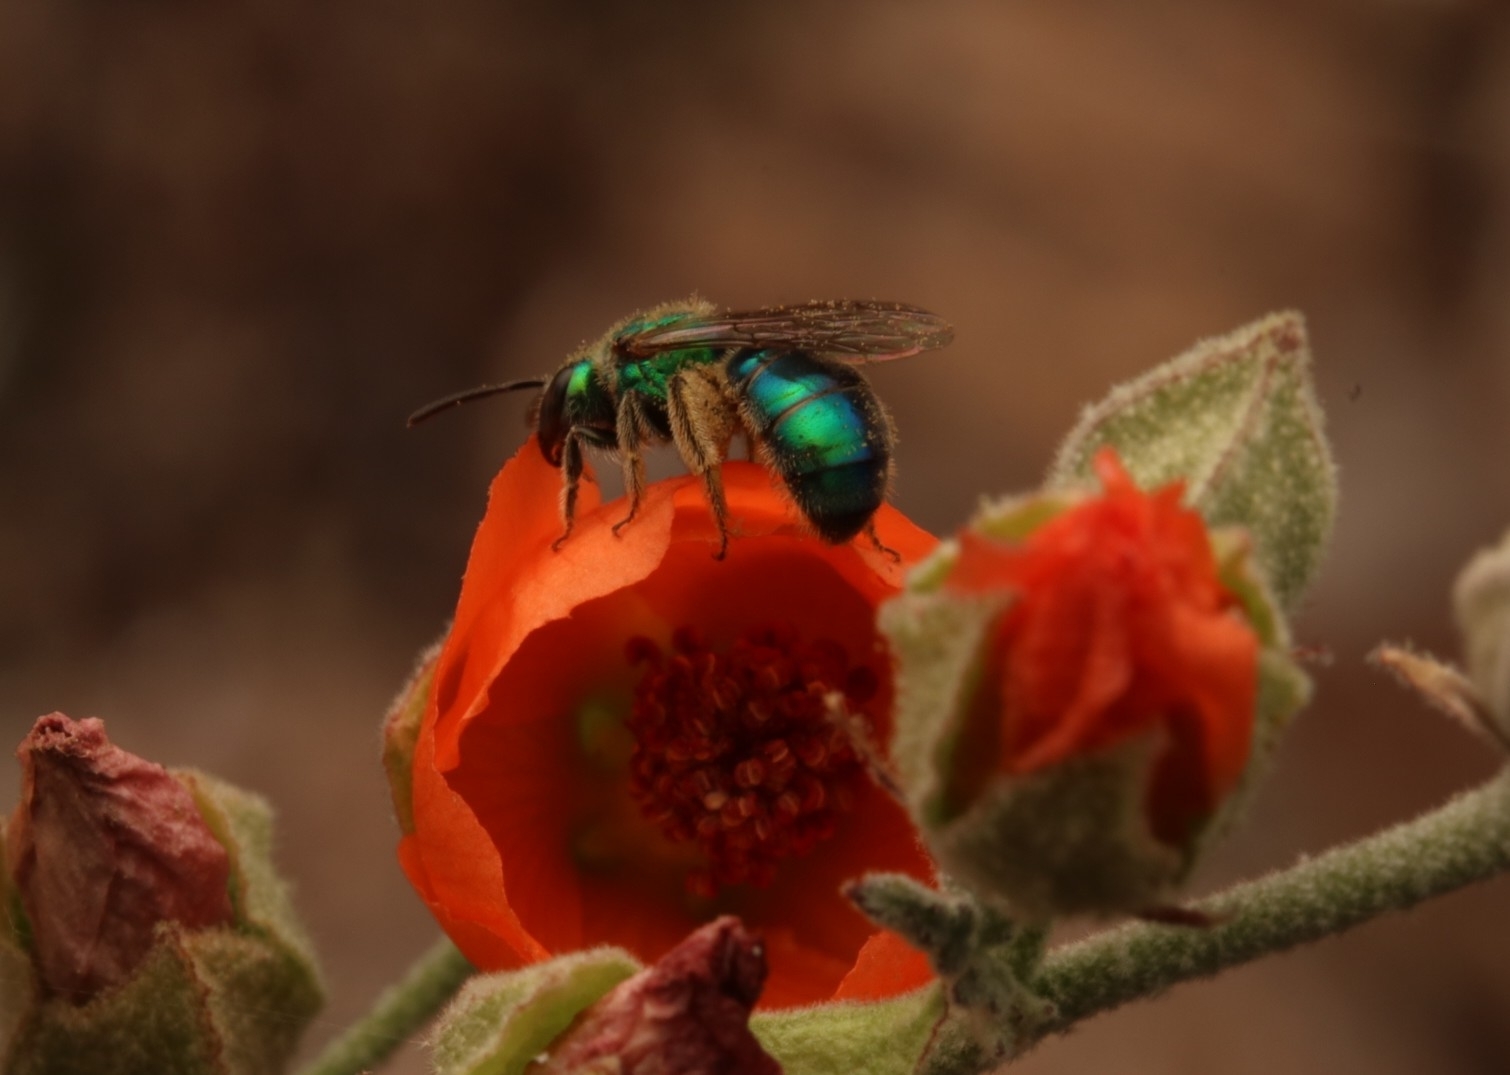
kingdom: Animalia
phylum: Arthropoda
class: Insecta
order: Hymenoptera
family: Halictidae
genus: Augochlorella
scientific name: Augochlorella pomoniella
